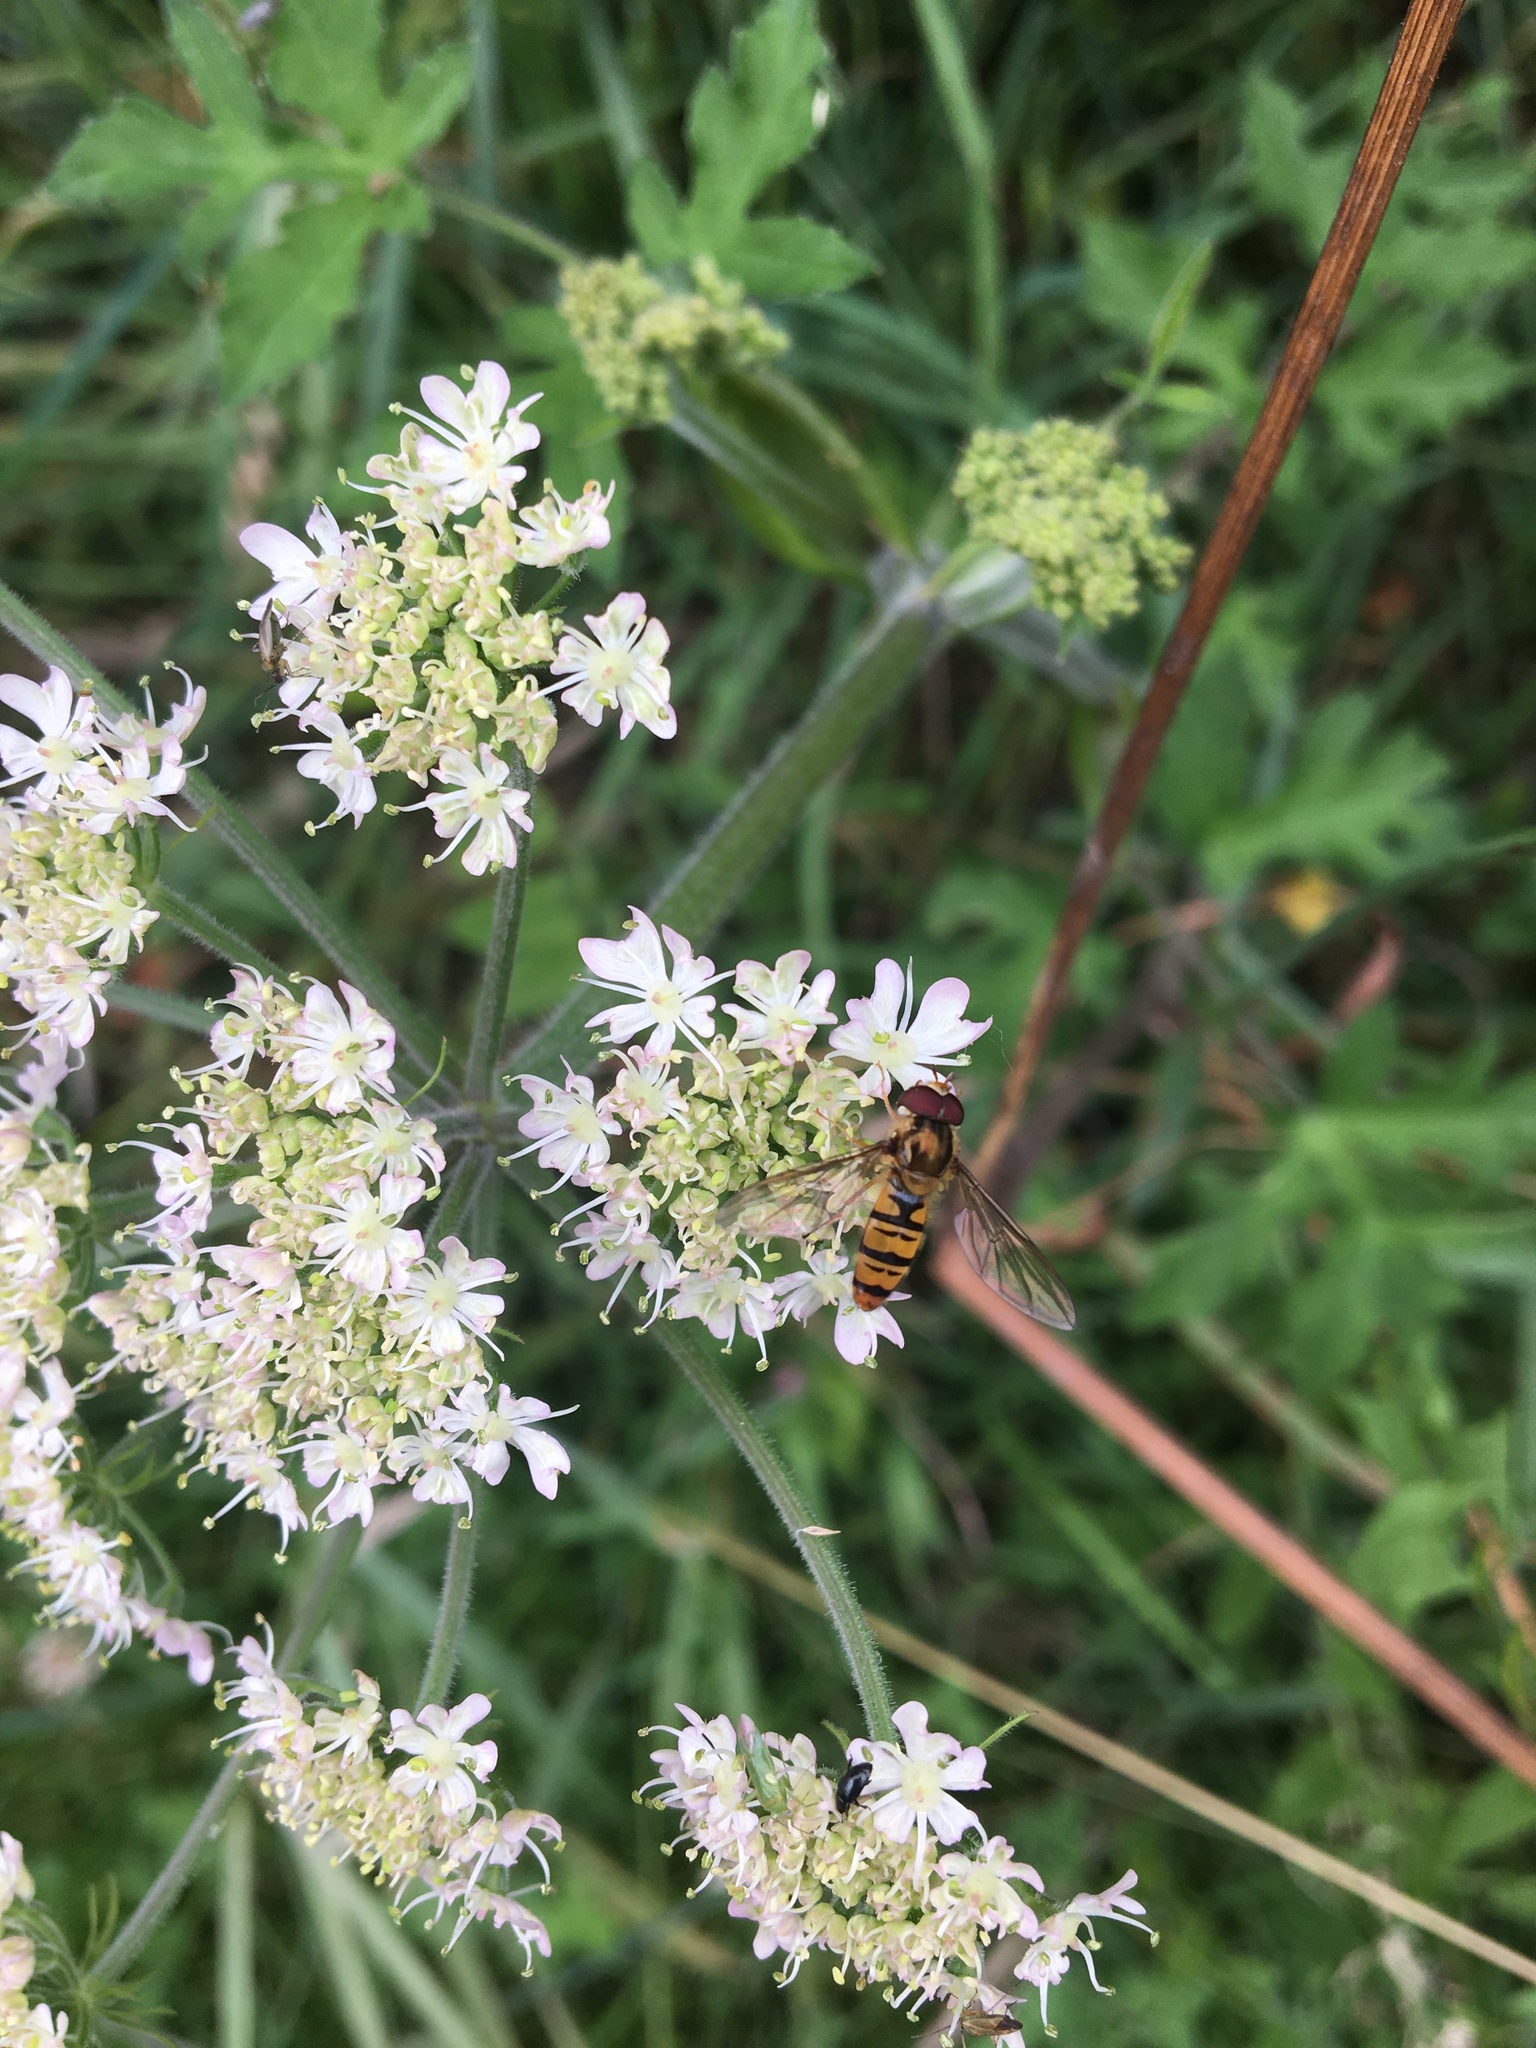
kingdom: Animalia
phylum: Arthropoda
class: Insecta
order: Diptera
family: Syrphidae
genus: Episyrphus
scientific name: Episyrphus balteatus
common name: Marmalade hoverfly
